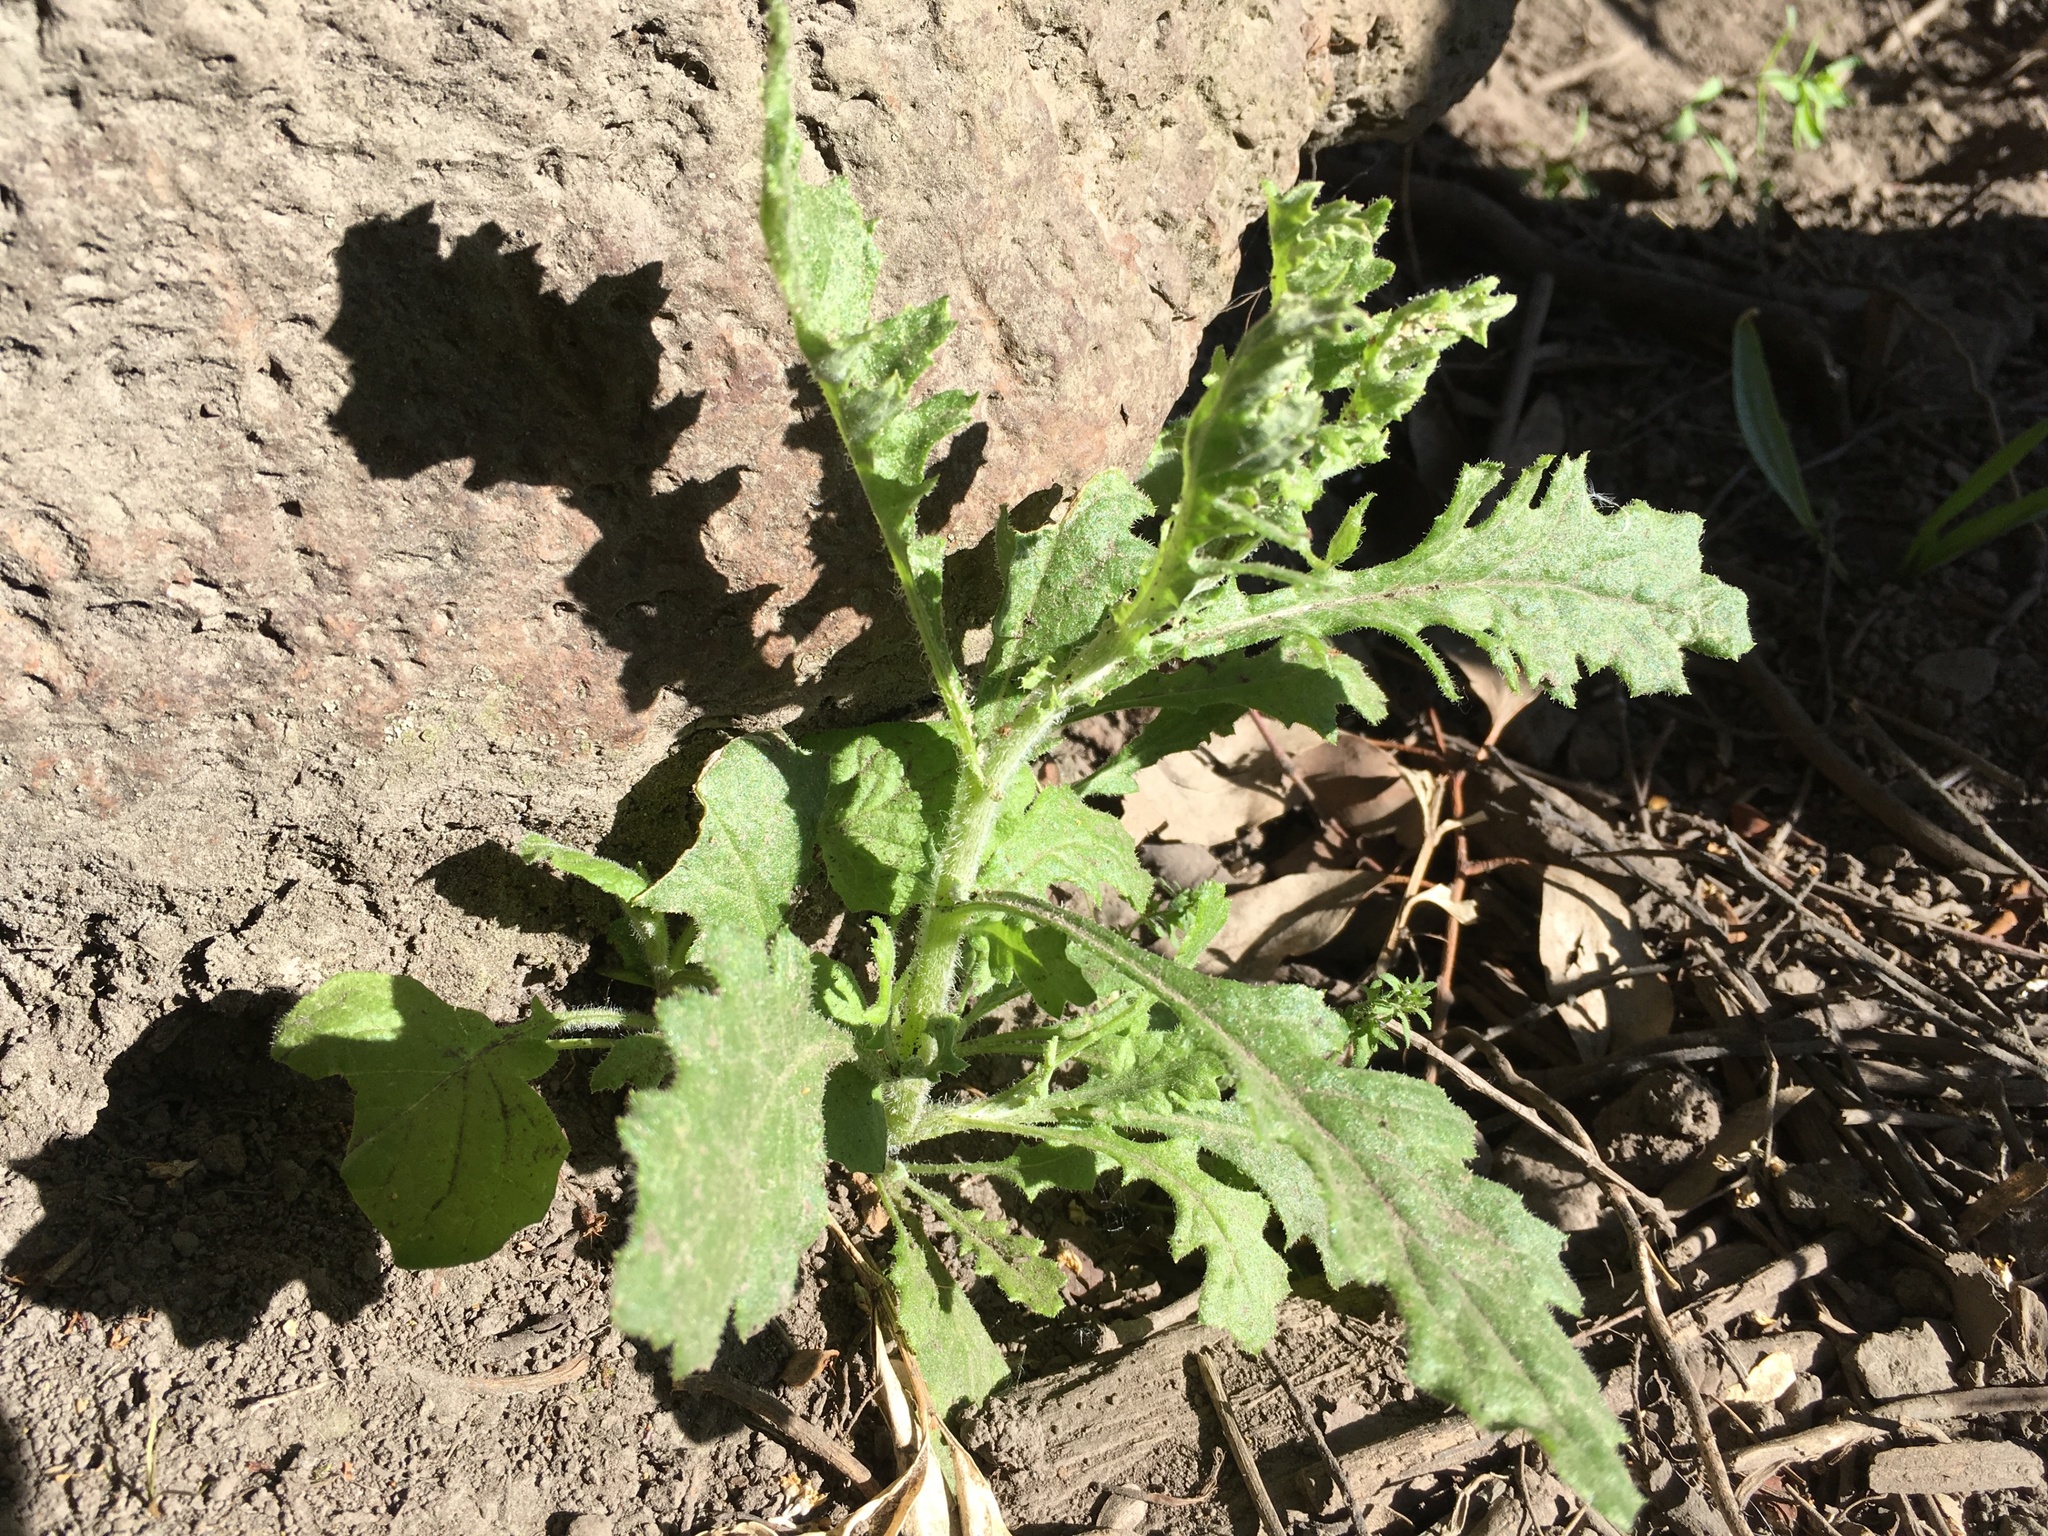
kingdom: Plantae
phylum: Tracheophyta
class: Magnoliopsida
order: Asterales
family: Asteraceae
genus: Senecio
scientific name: Senecio glomeratus
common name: Cutleaf burnweed
